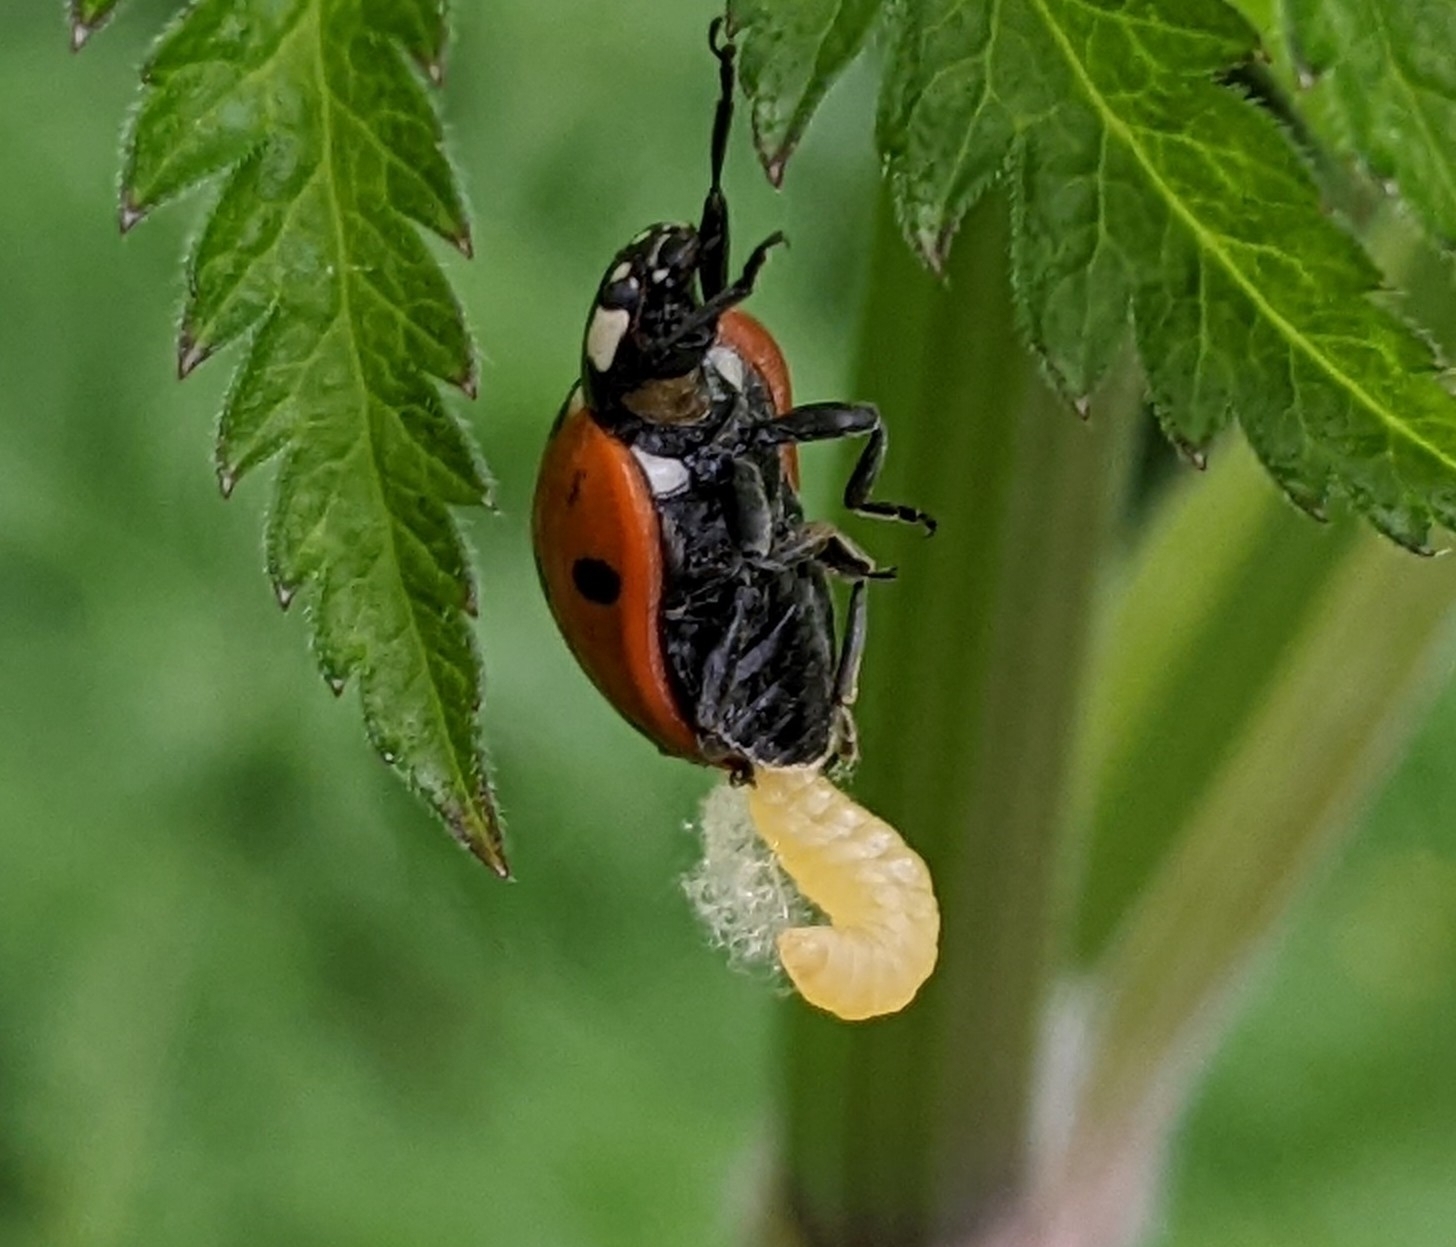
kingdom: Animalia
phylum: Arthropoda
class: Insecta
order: Hymenoptera
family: Braconidae
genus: Dinocampus
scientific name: Dinocampus coccinellae
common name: Braconid wasp
